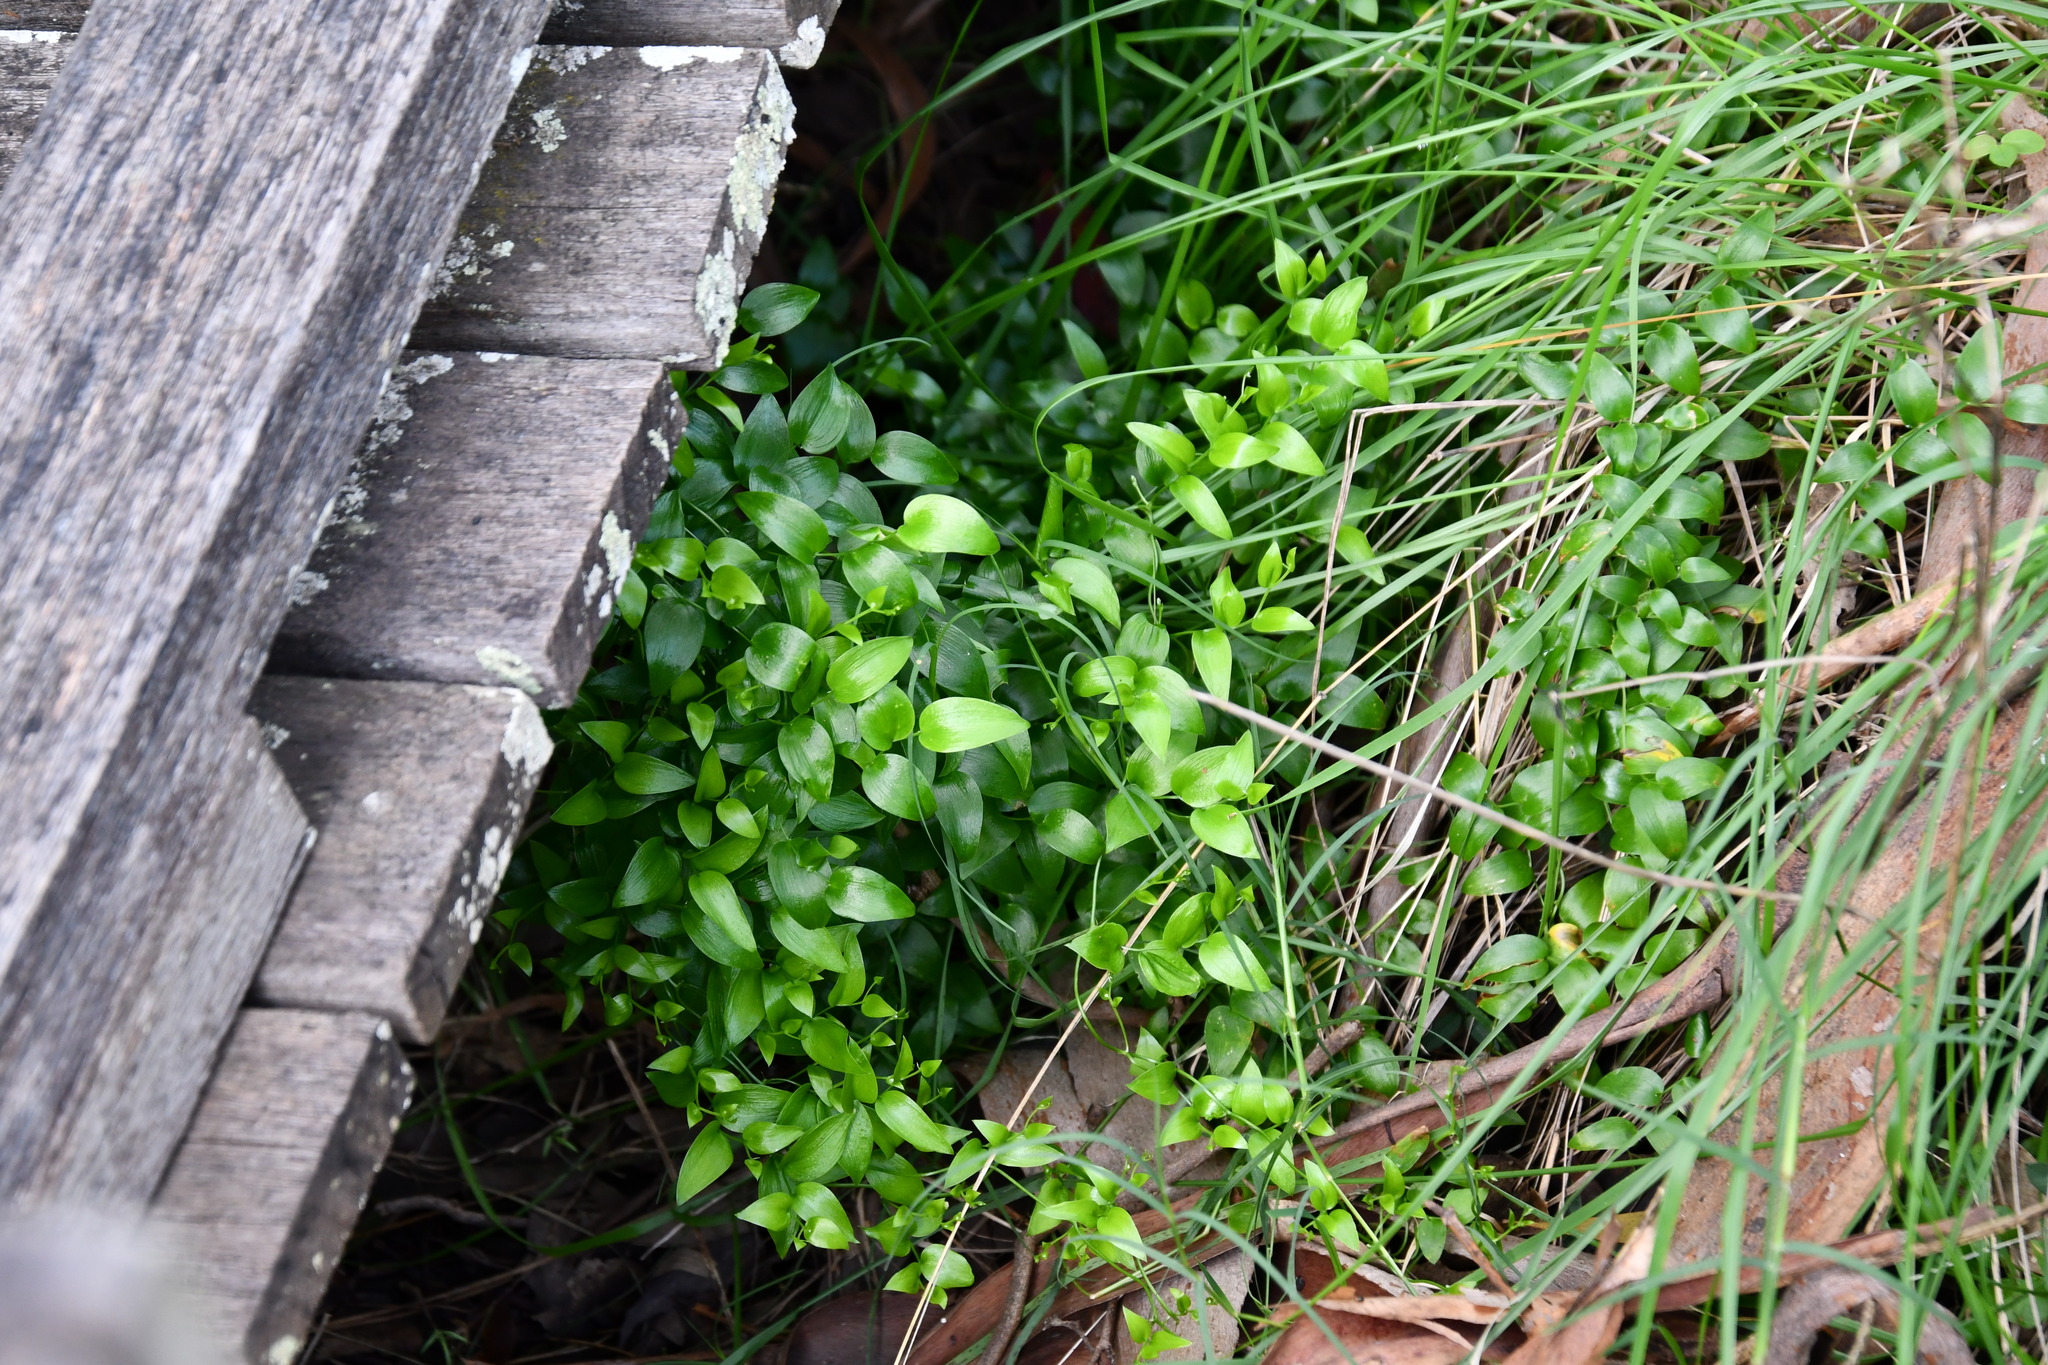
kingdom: Plantae
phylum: Tracheophyta
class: Liliopsida
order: Asparagales
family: Asparagaceae
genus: Asparagus
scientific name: Asparagus asparagoides
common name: African asparagus fern
